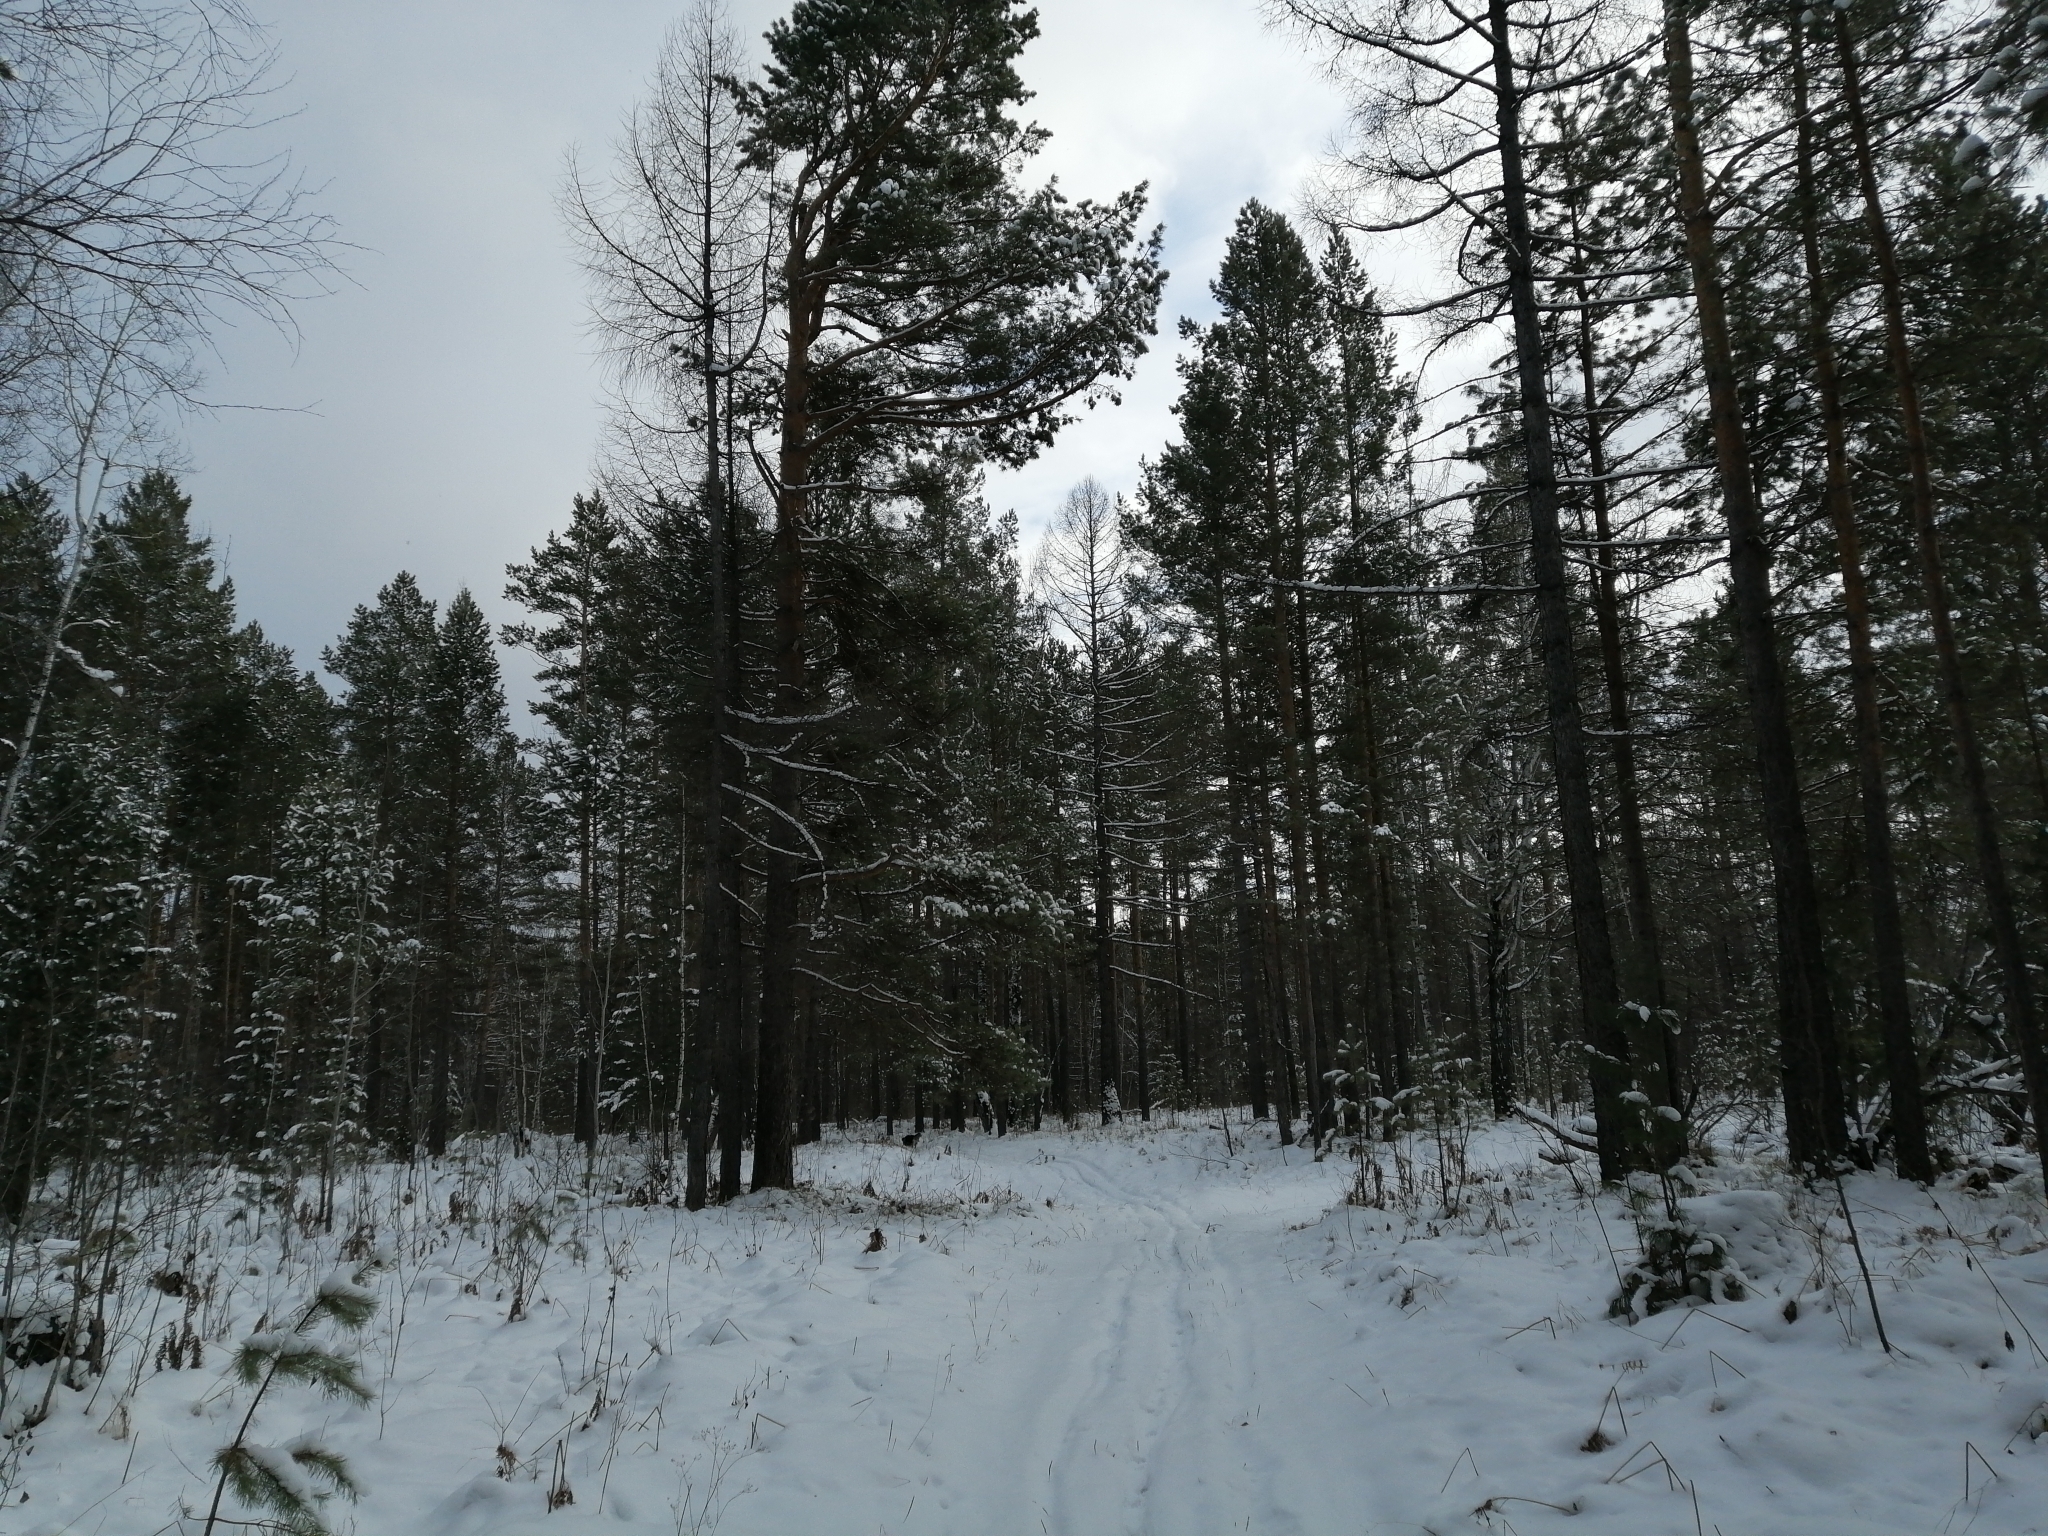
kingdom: Plantae
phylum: Tracheophyta
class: Pinopsida
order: Pinales
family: Pinaceae
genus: Pinus
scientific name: Pinus sylvestris
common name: Scots pine
